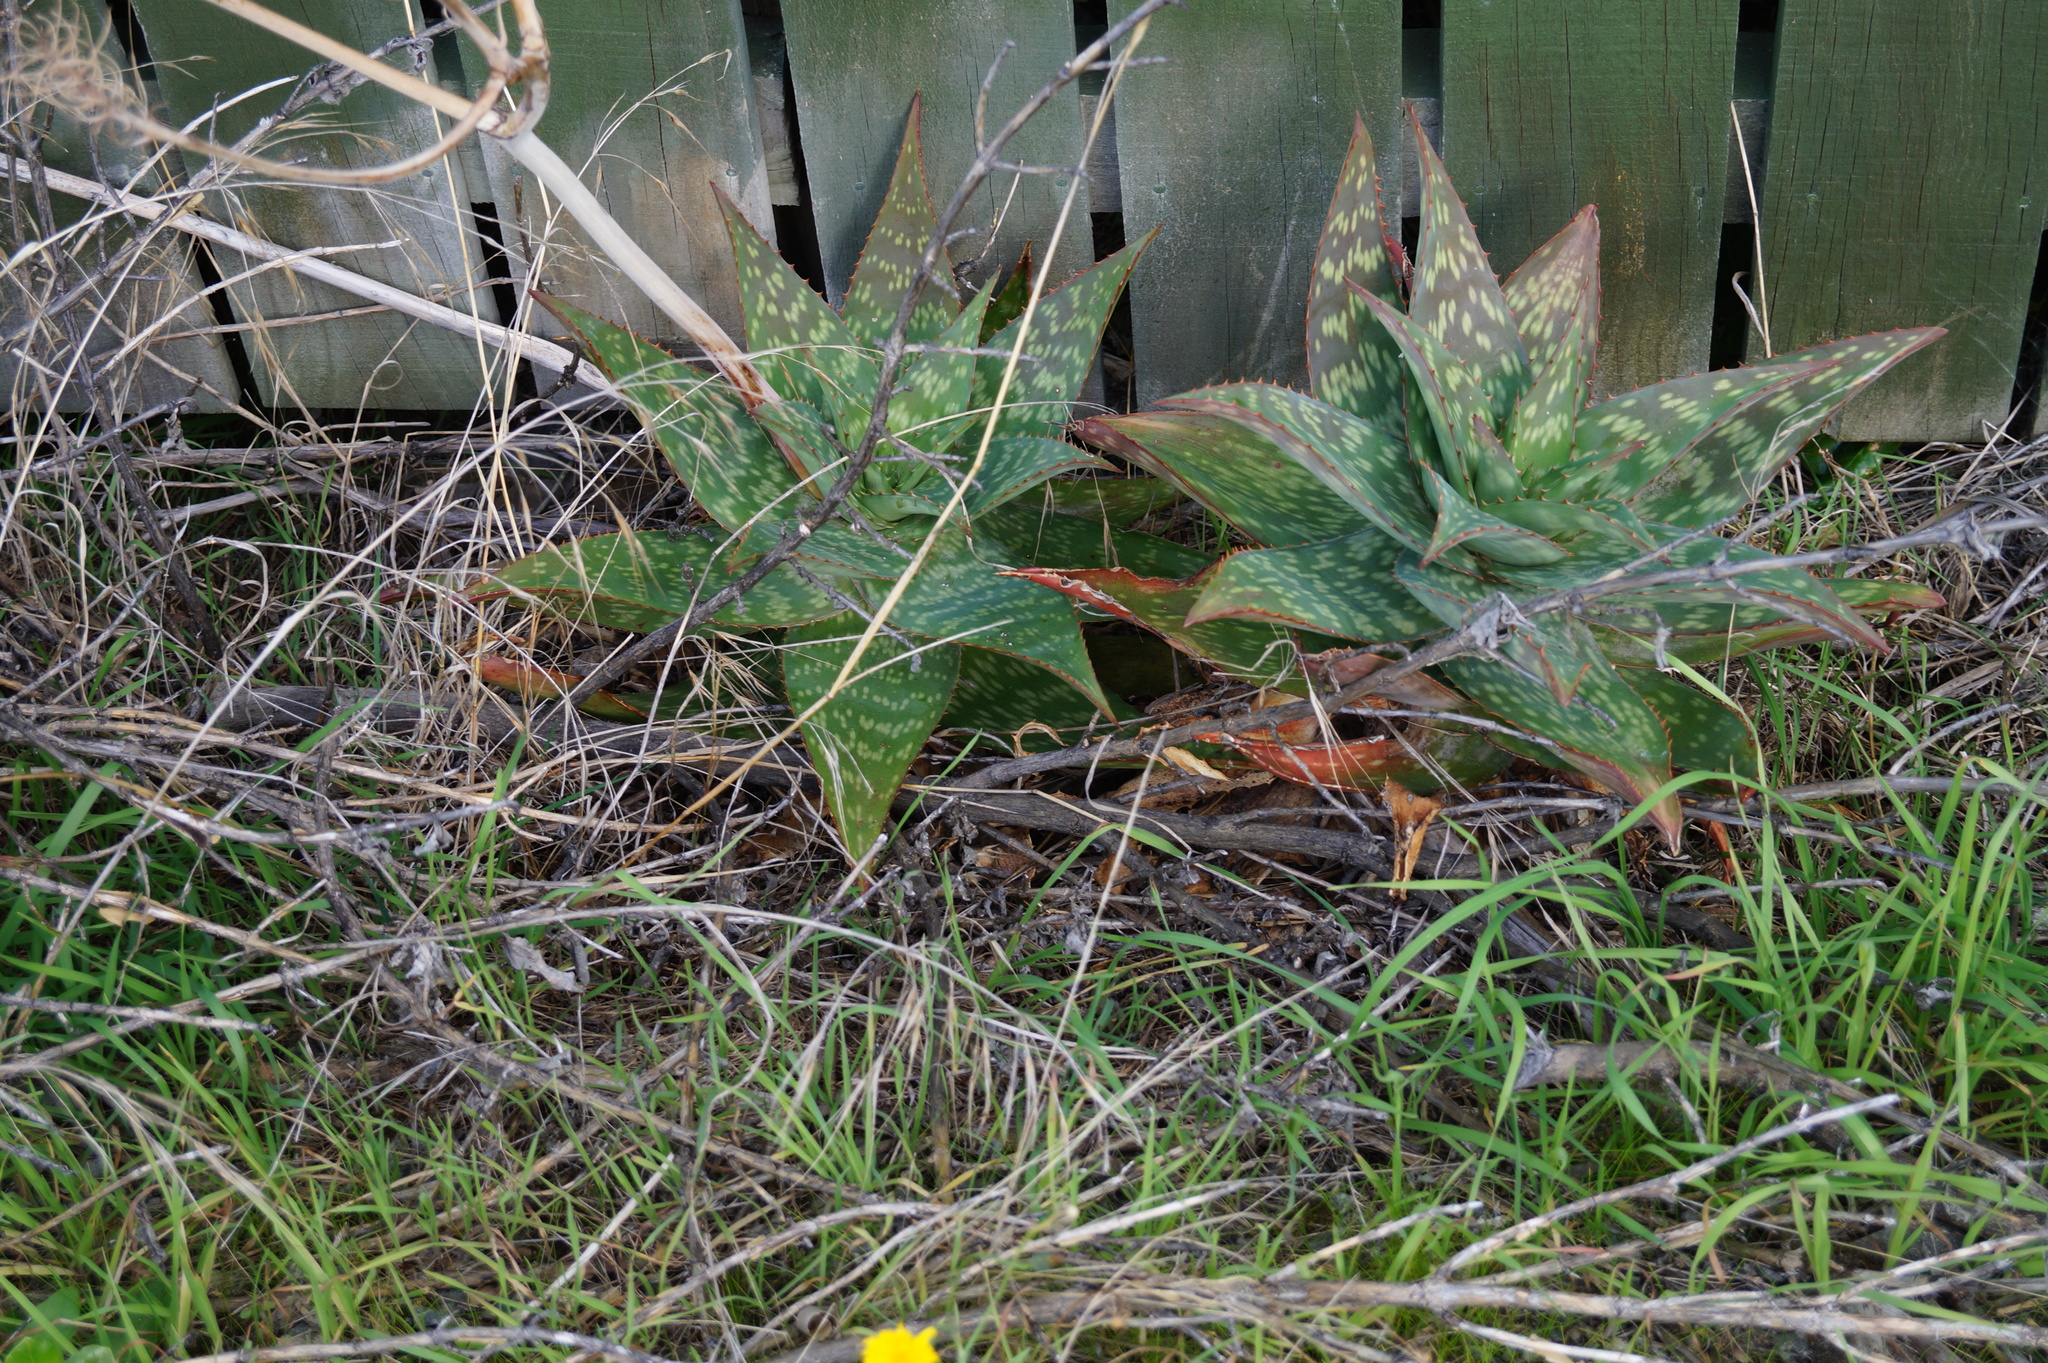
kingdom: Plantae
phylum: Tracheophyta
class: Liliopsida
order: Asparagales
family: Asphodelaceae
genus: Aloe
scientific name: Aloe maculata
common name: Broadleaf aloe
